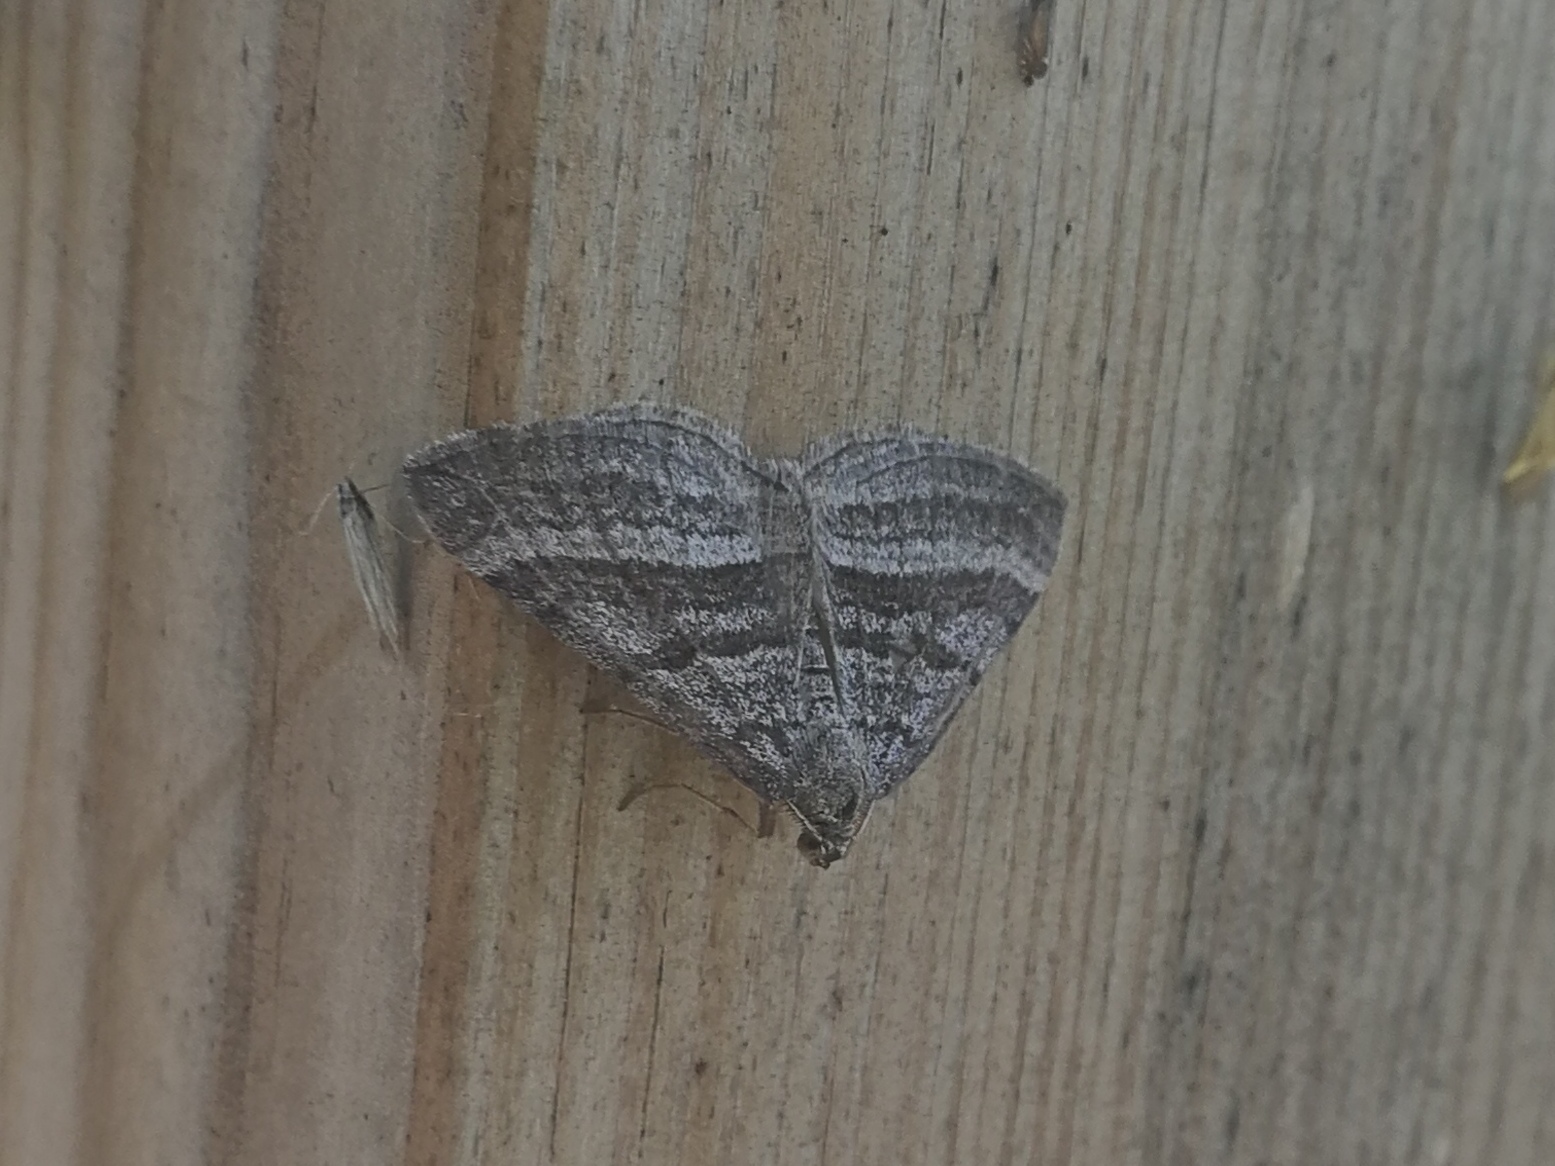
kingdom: Animalia
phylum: Arthropoda
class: Insecta
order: Lepidoptera
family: Geometridae
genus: Scotopteryx
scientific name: Scotopteryx coarctaria
